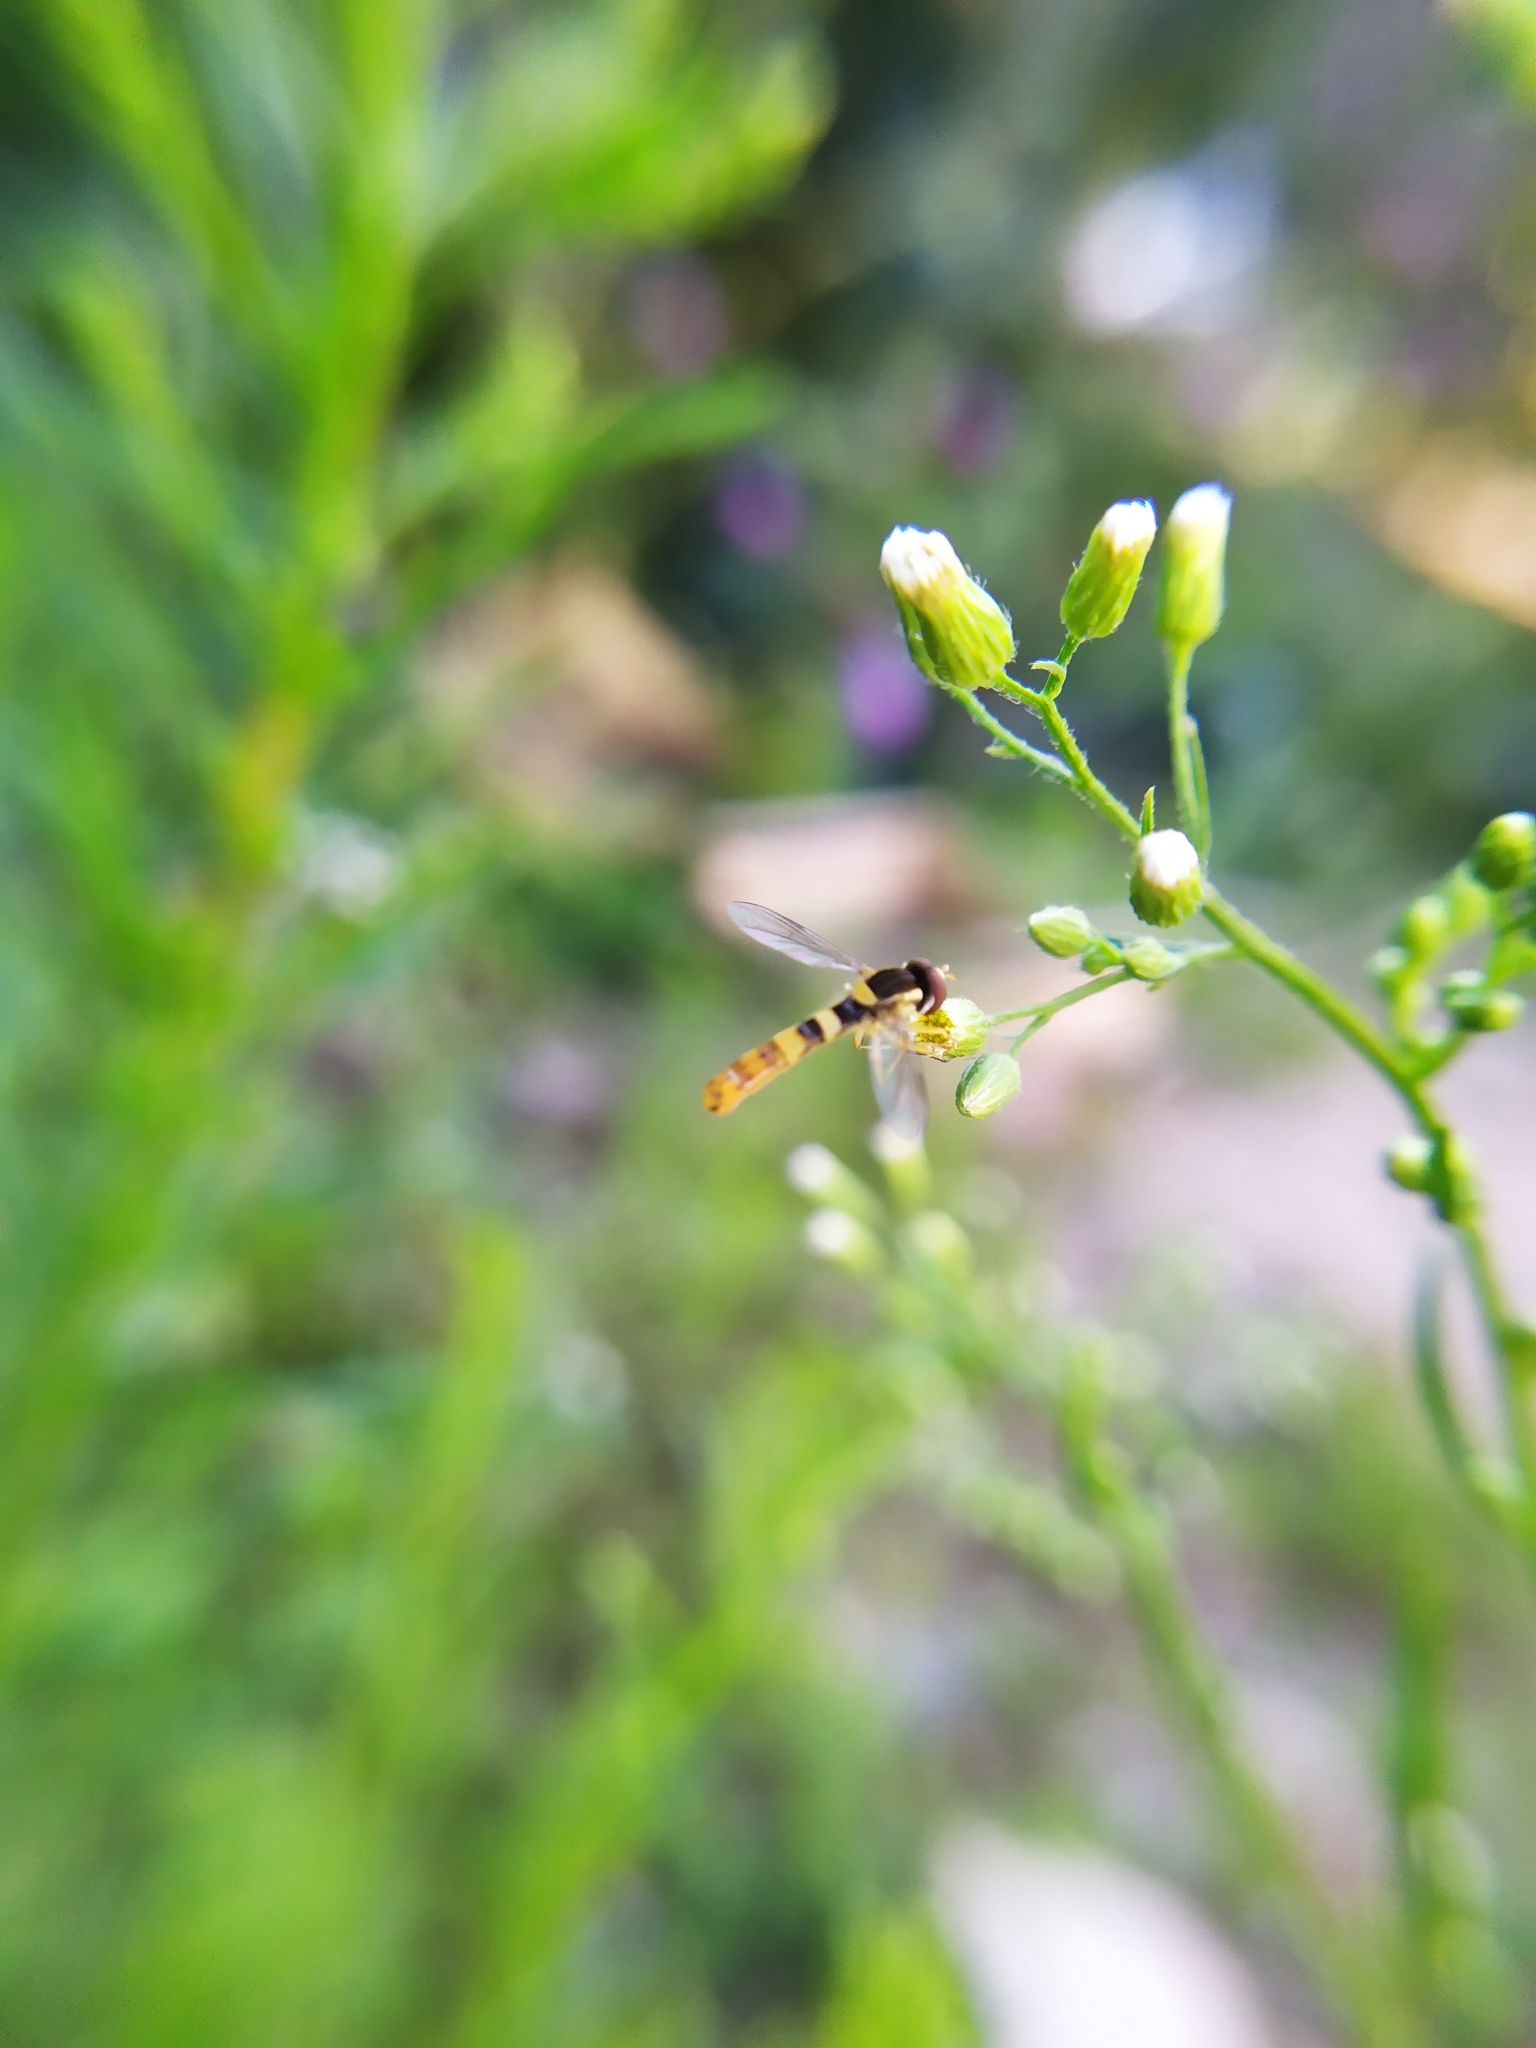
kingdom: Animalia
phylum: Arthropoda
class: Insecta
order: Diptera
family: Syrphidae
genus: Sphaerophoria
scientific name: Sphaerophoria scripta
